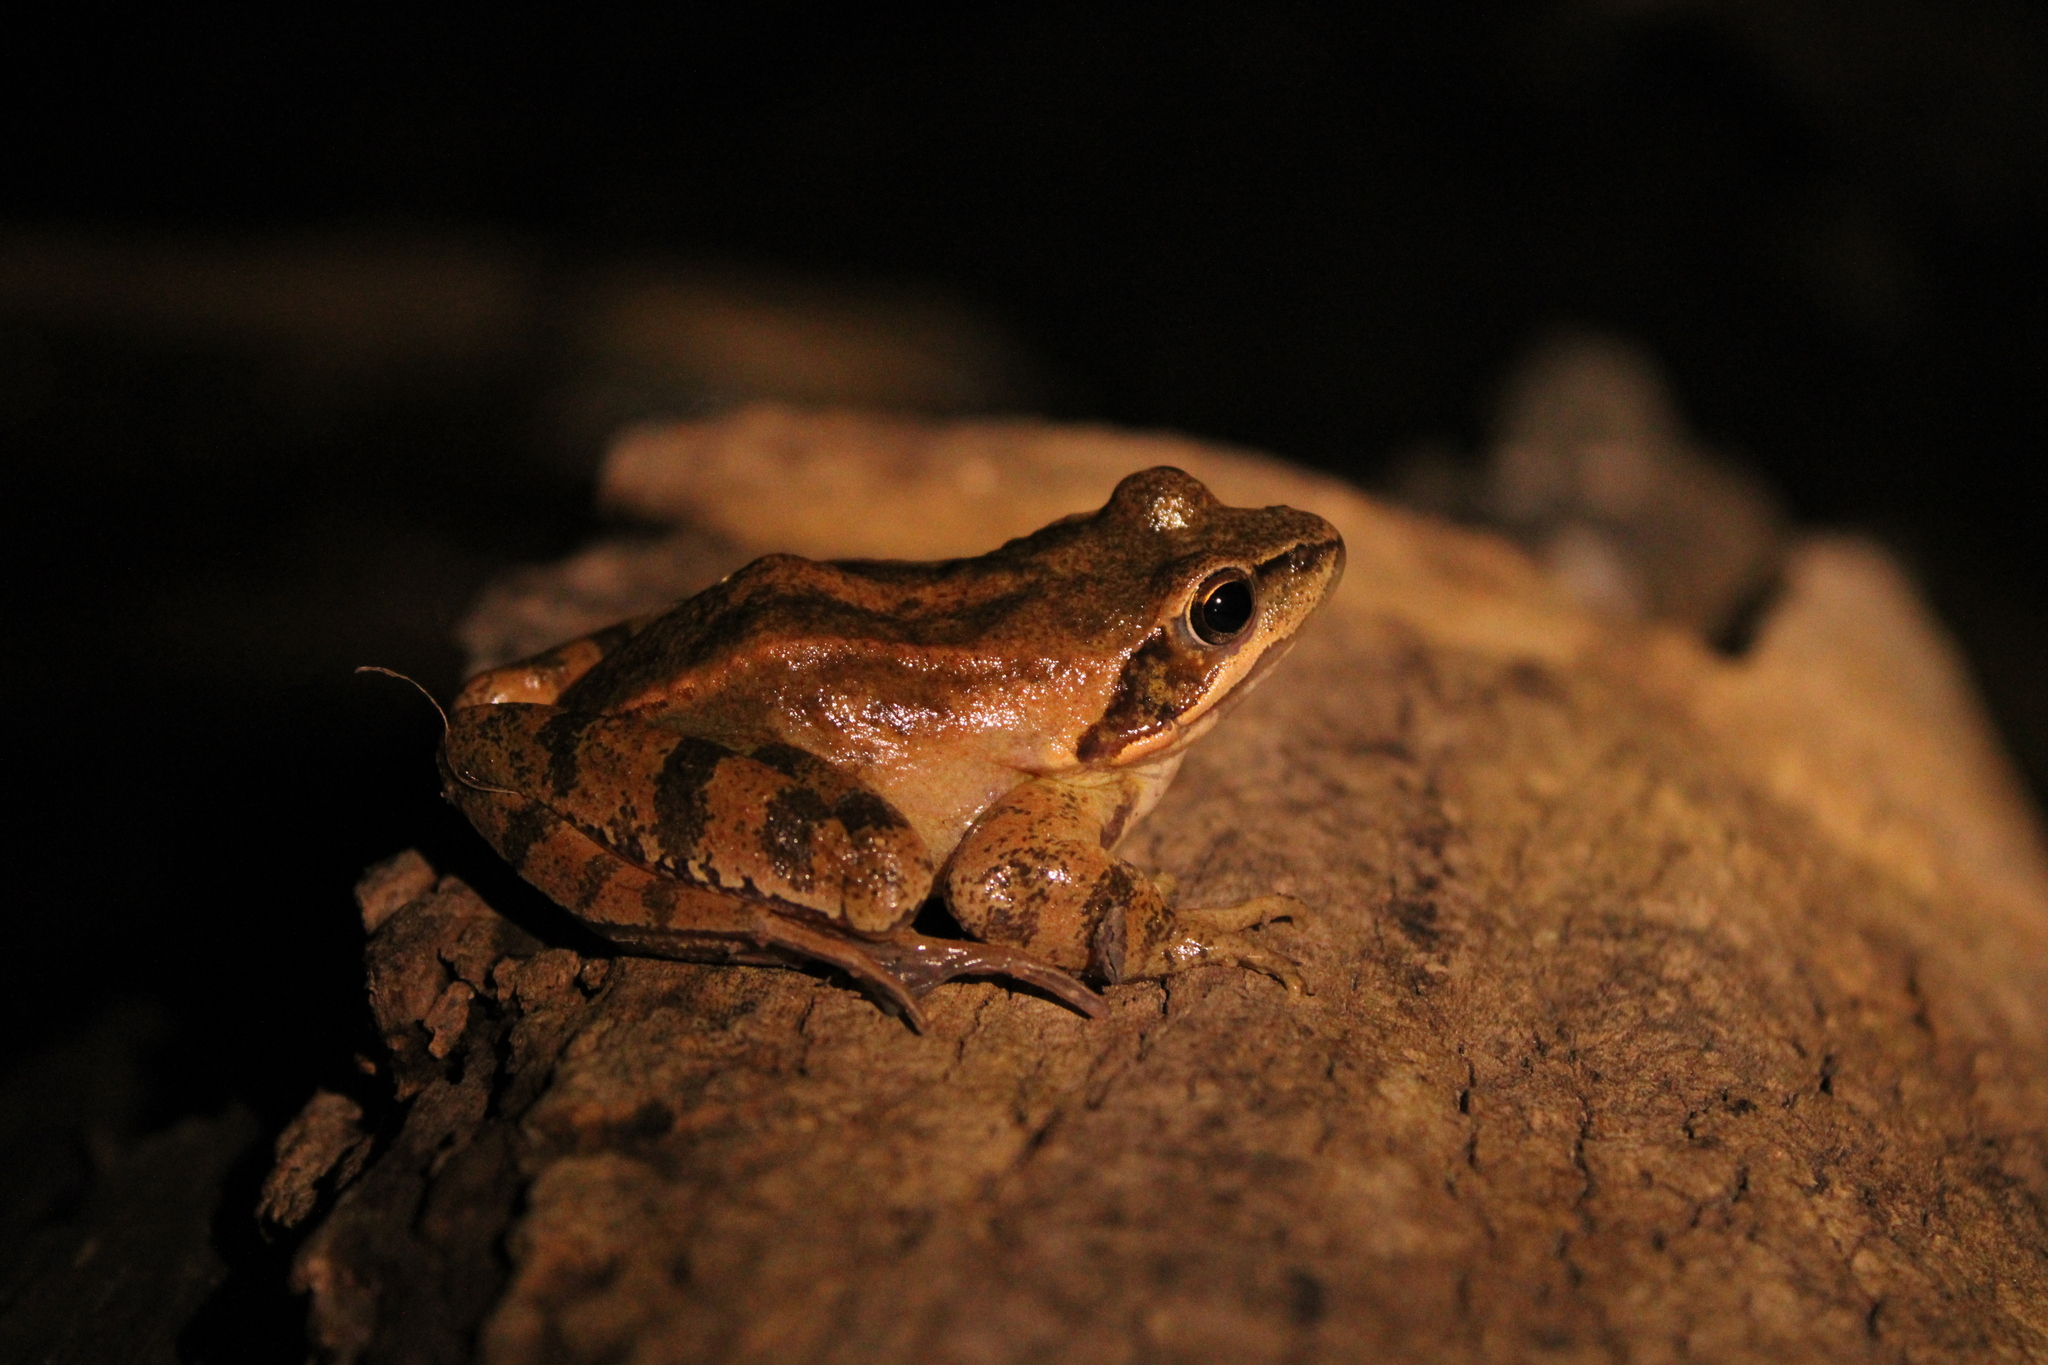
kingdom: Animalia
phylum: Chordata
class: Amphibia
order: Anura
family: Ranidae
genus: Rana
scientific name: Rana dalmatina
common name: Agile frog
